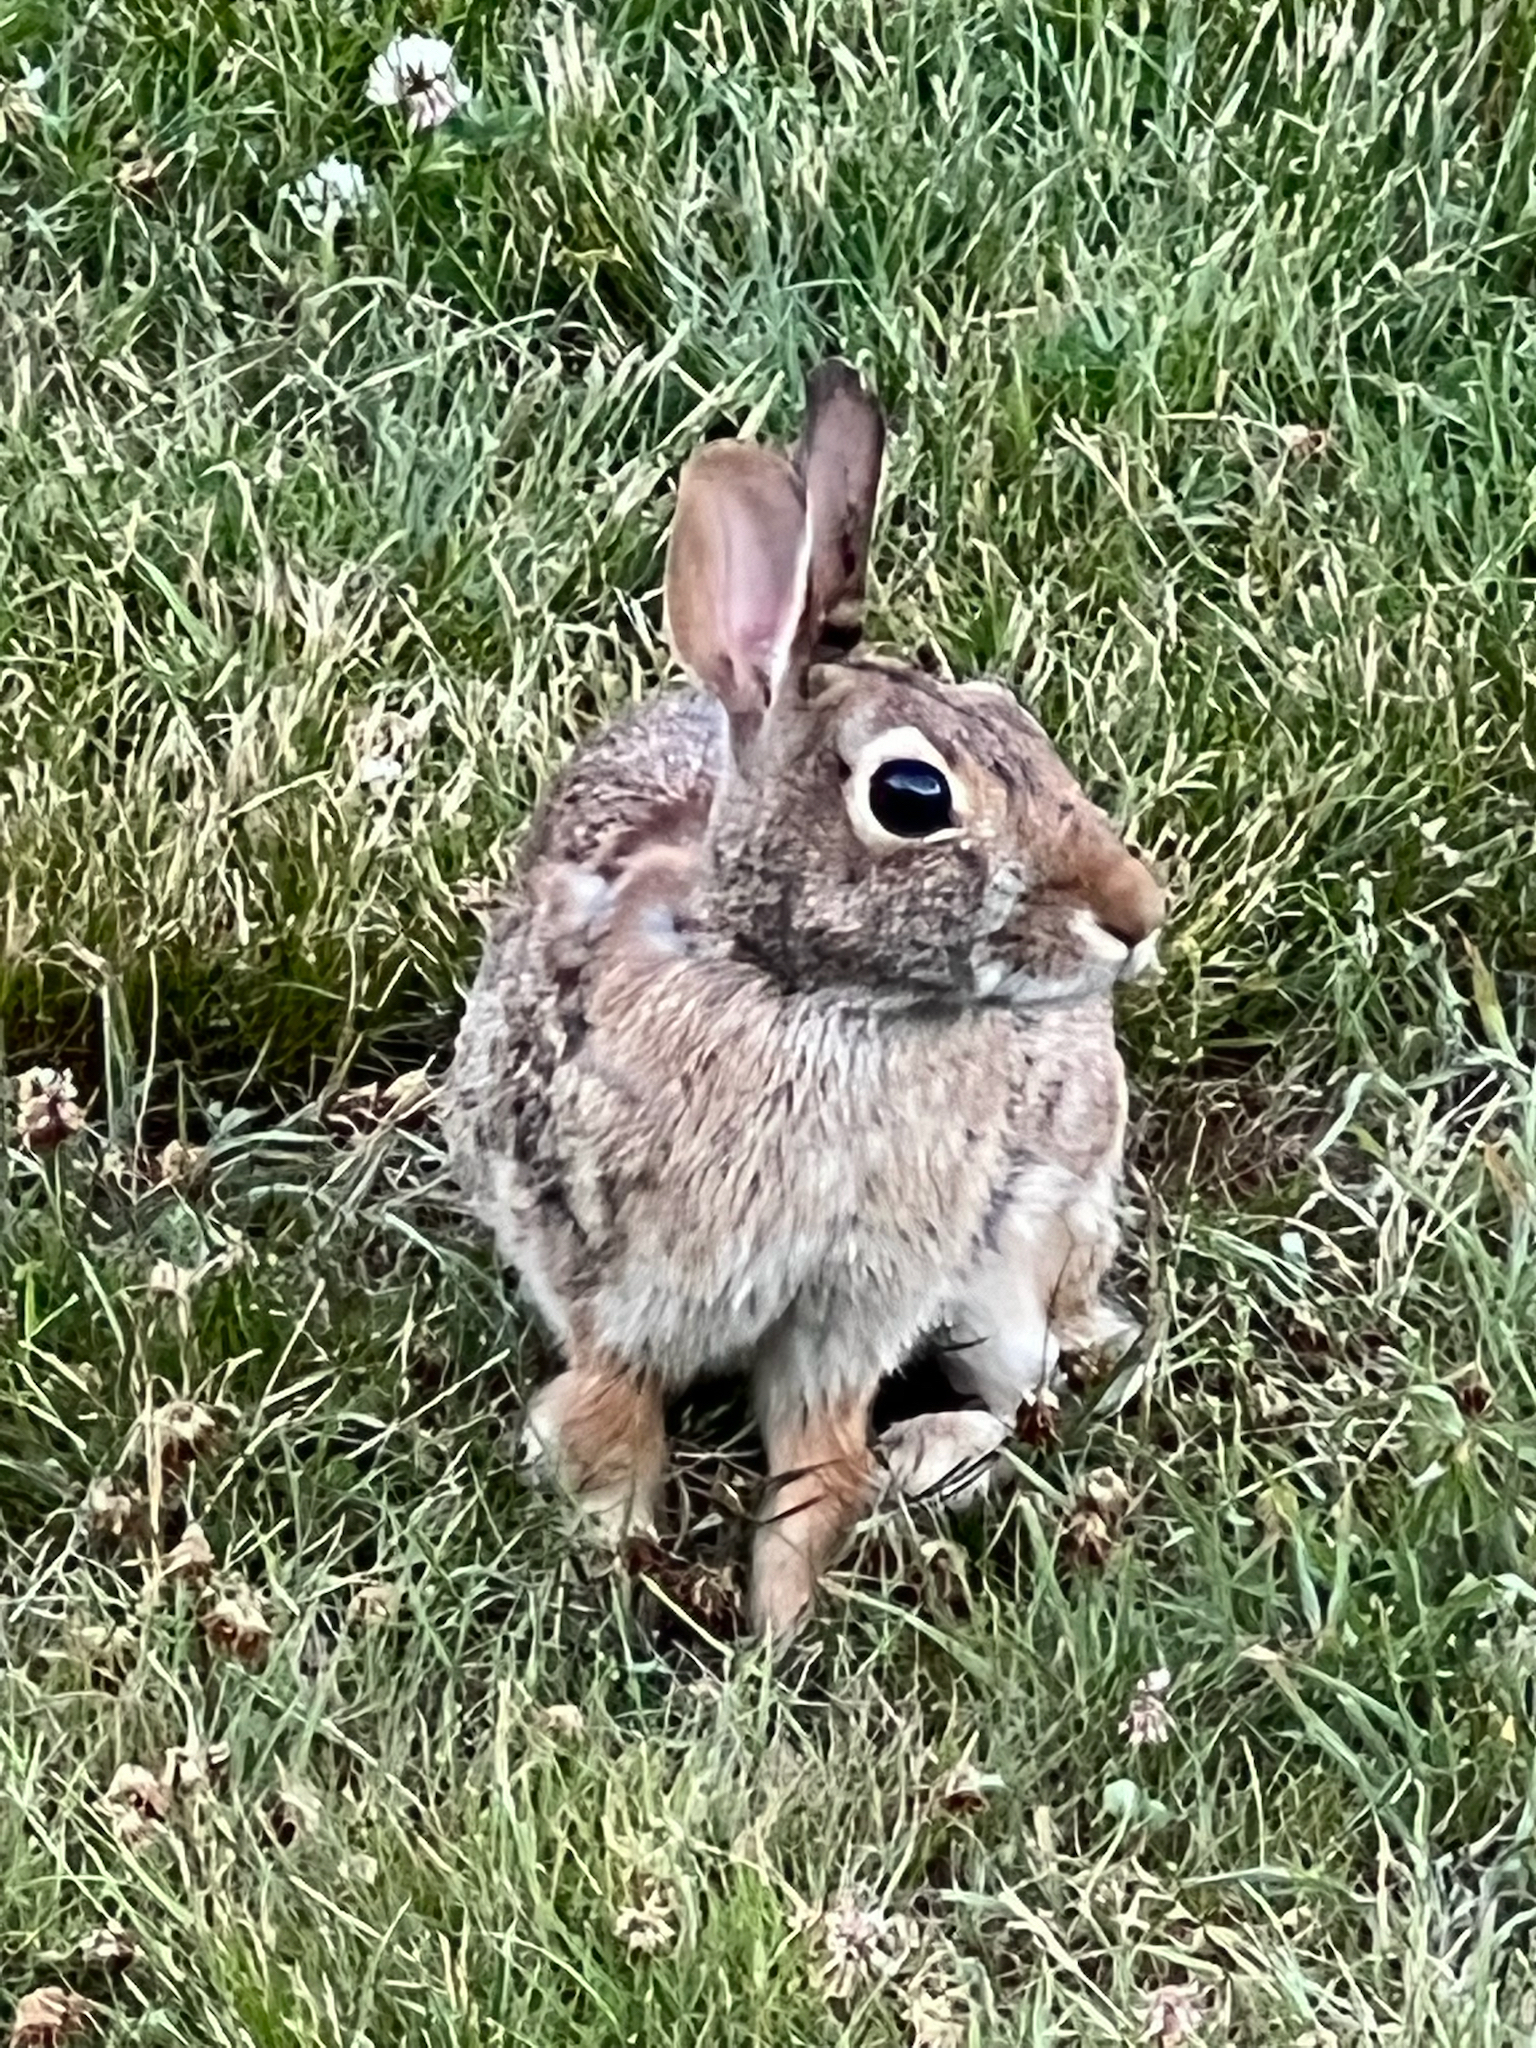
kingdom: Animalia
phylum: Chordata
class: Mammalia
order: Lagomorpha
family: Leporidae
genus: Sylvilagus
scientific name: Sylvilagus floridanus
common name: Eastern cottontail
